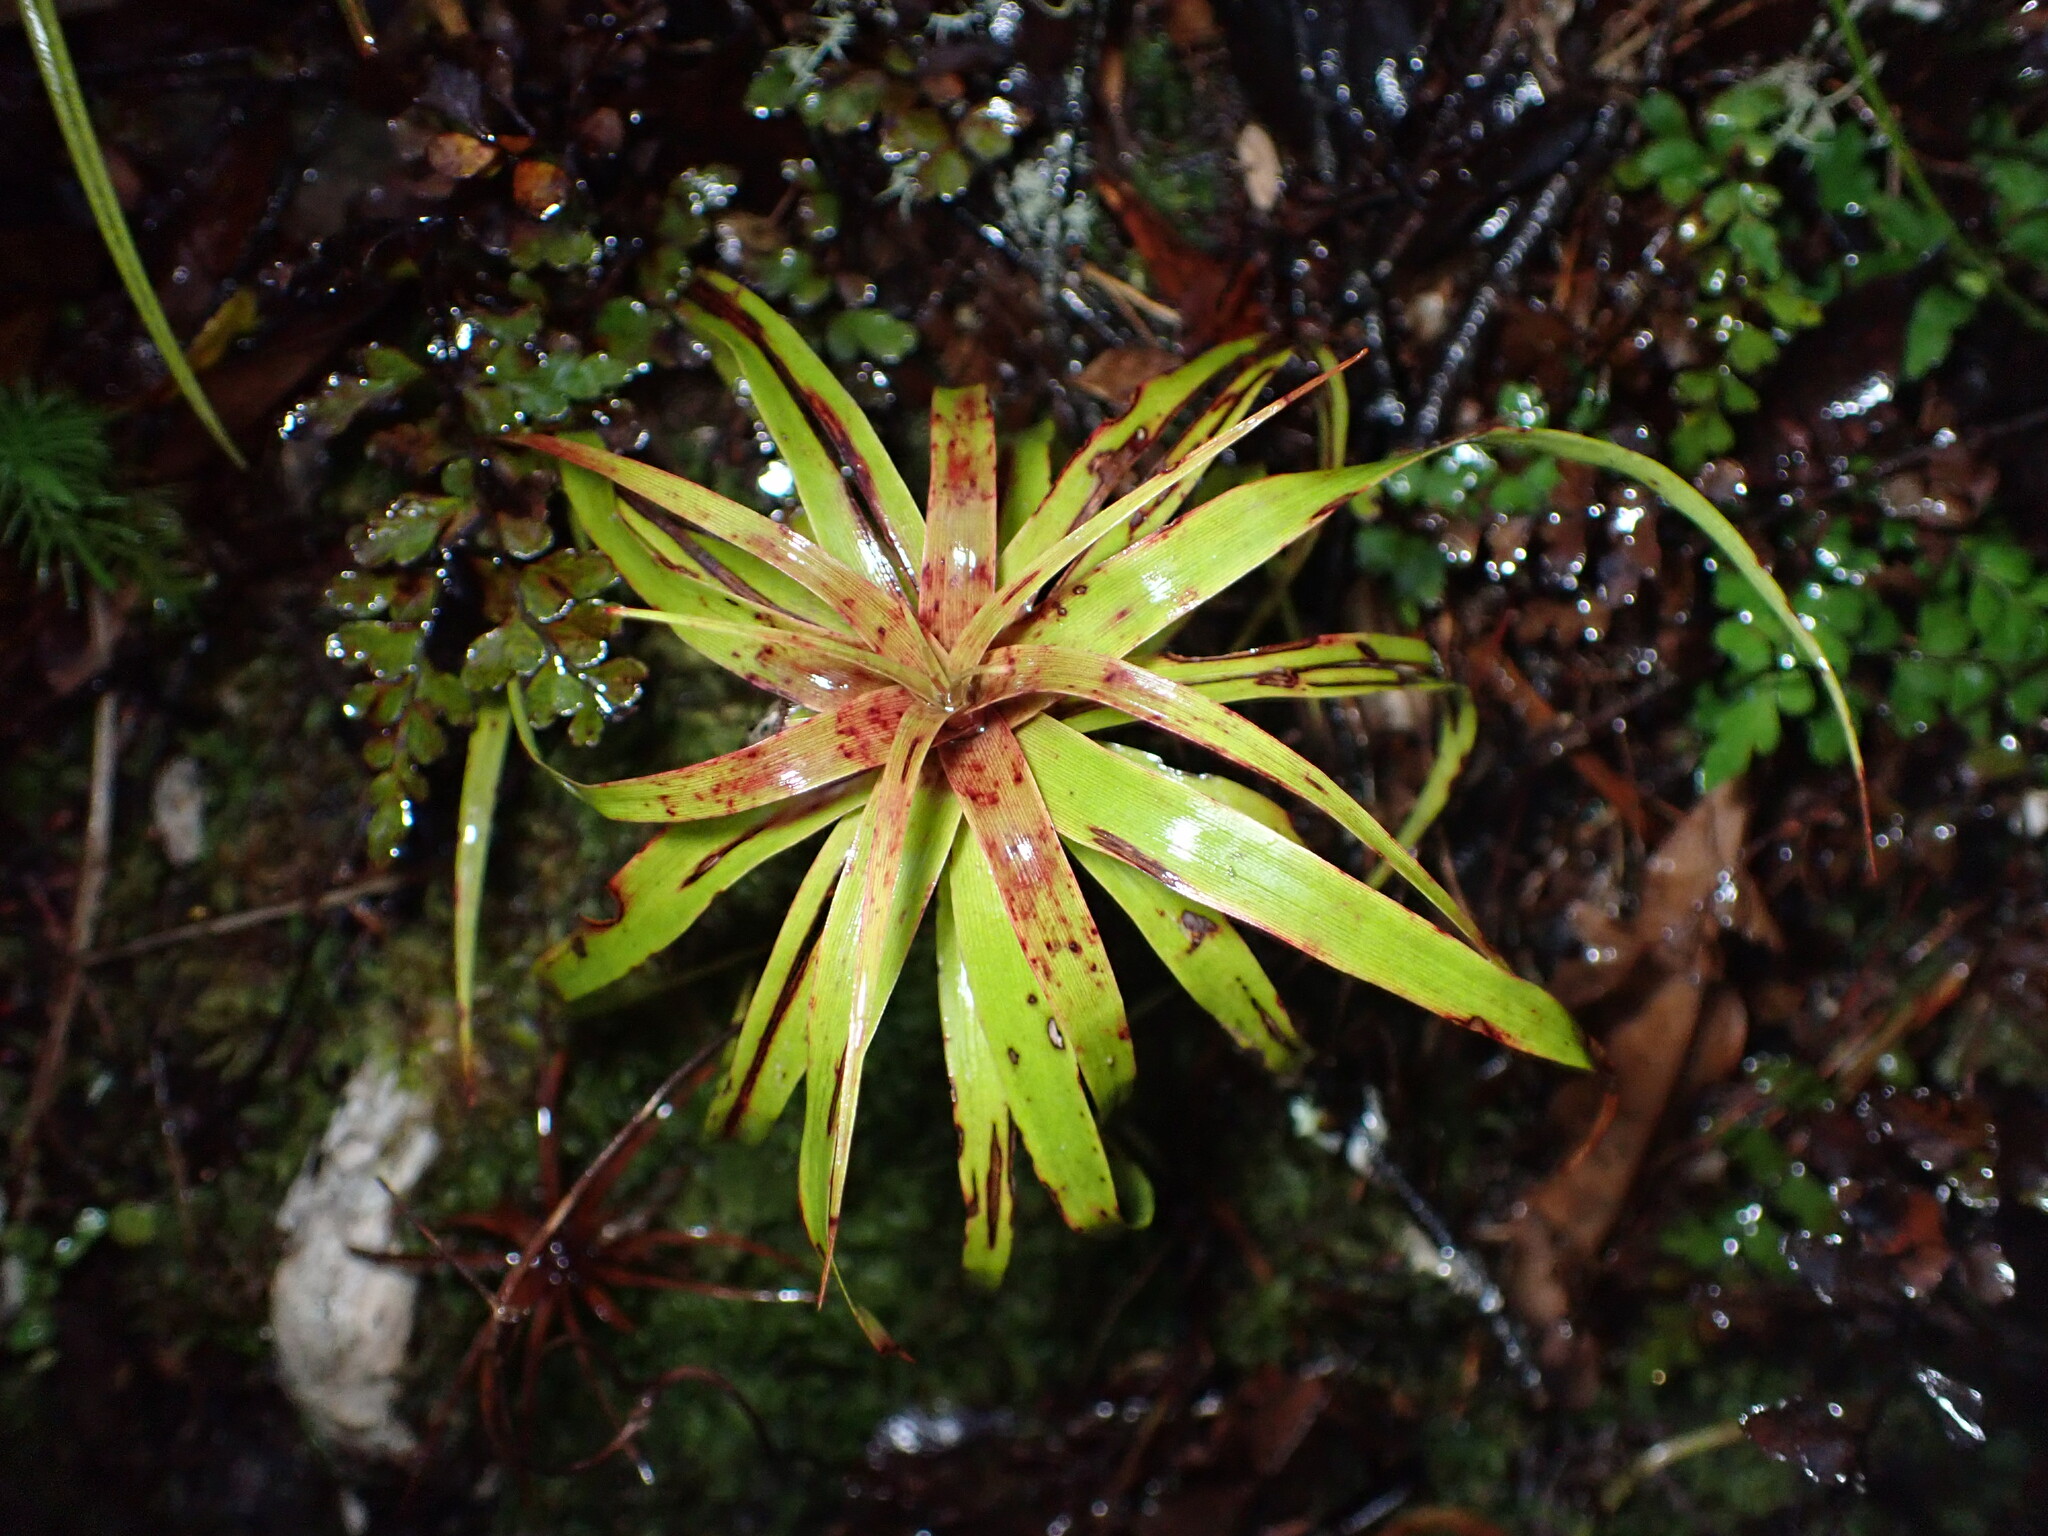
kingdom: Plantae
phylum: Tracheophyta
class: Magnoliopsida
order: Ericales
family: Ericaceae
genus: Dracophyllum
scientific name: Dracophyllum latifolium
